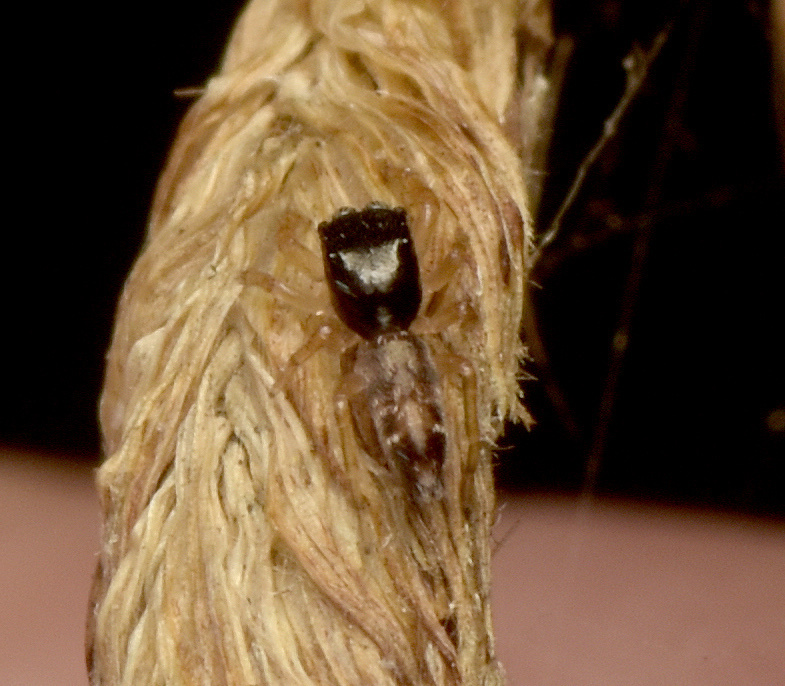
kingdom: Animalia
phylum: Arthropoda
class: Arachnida
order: Araneae
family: Salticidae
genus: Apricia
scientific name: Apricia jovialis
